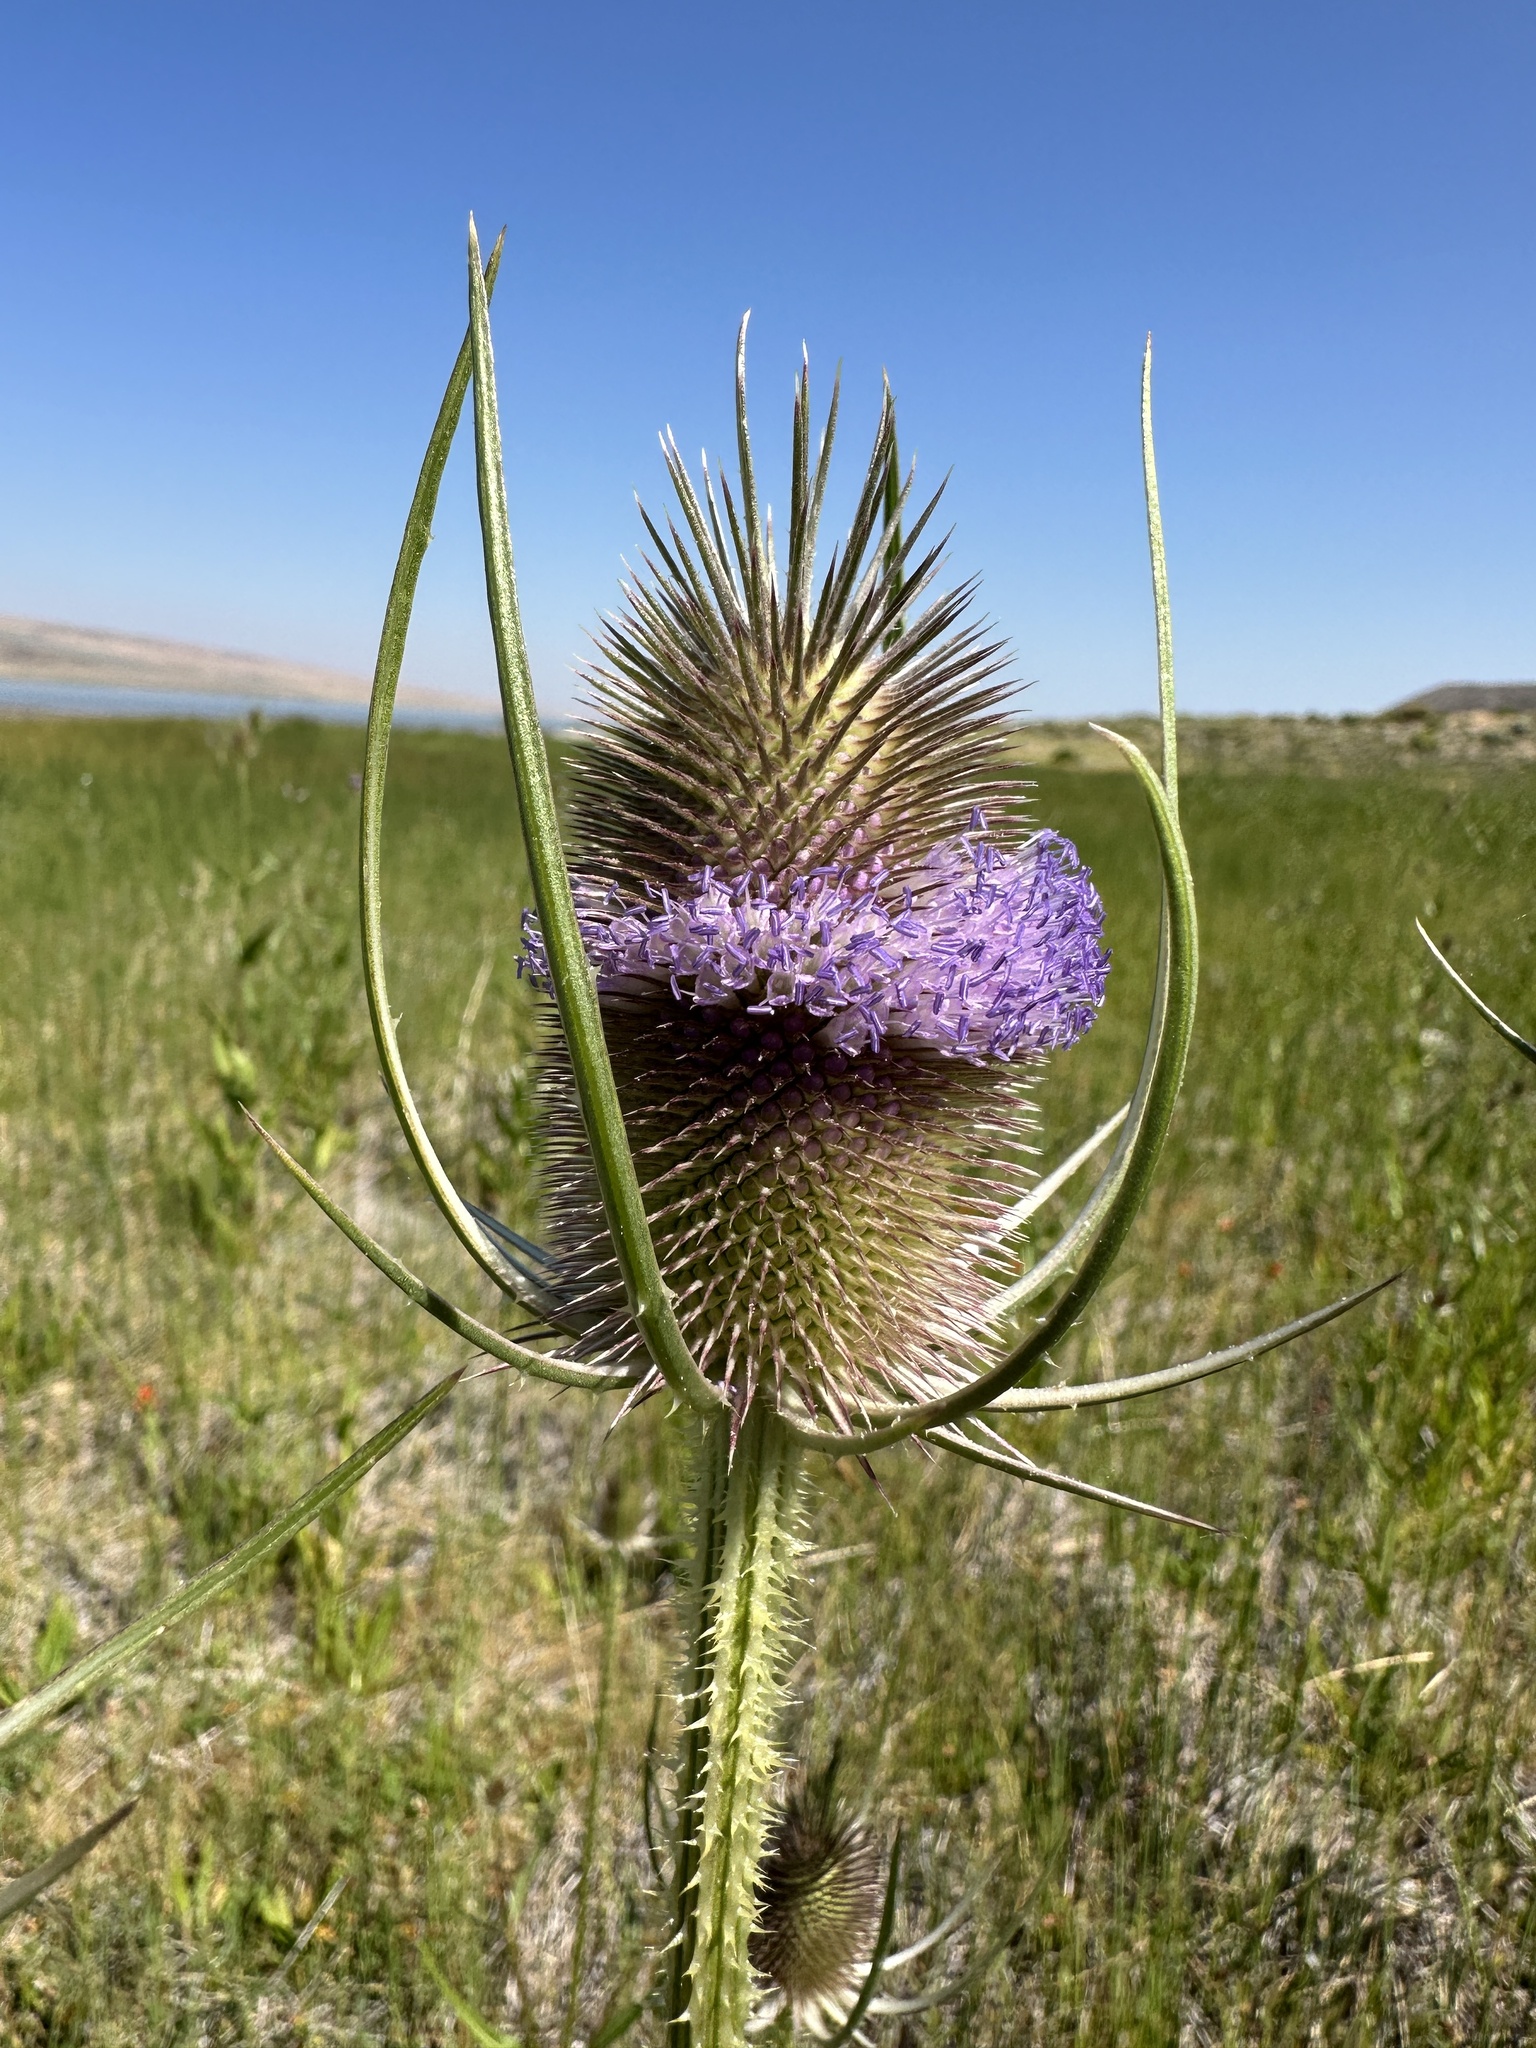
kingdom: Plantae
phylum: Tracheophyta
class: Magnoliopsida
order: Dipsacales
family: Caprifoliaceae
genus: Dipsacus
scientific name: Dipsacus fullonum
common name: Teasel
